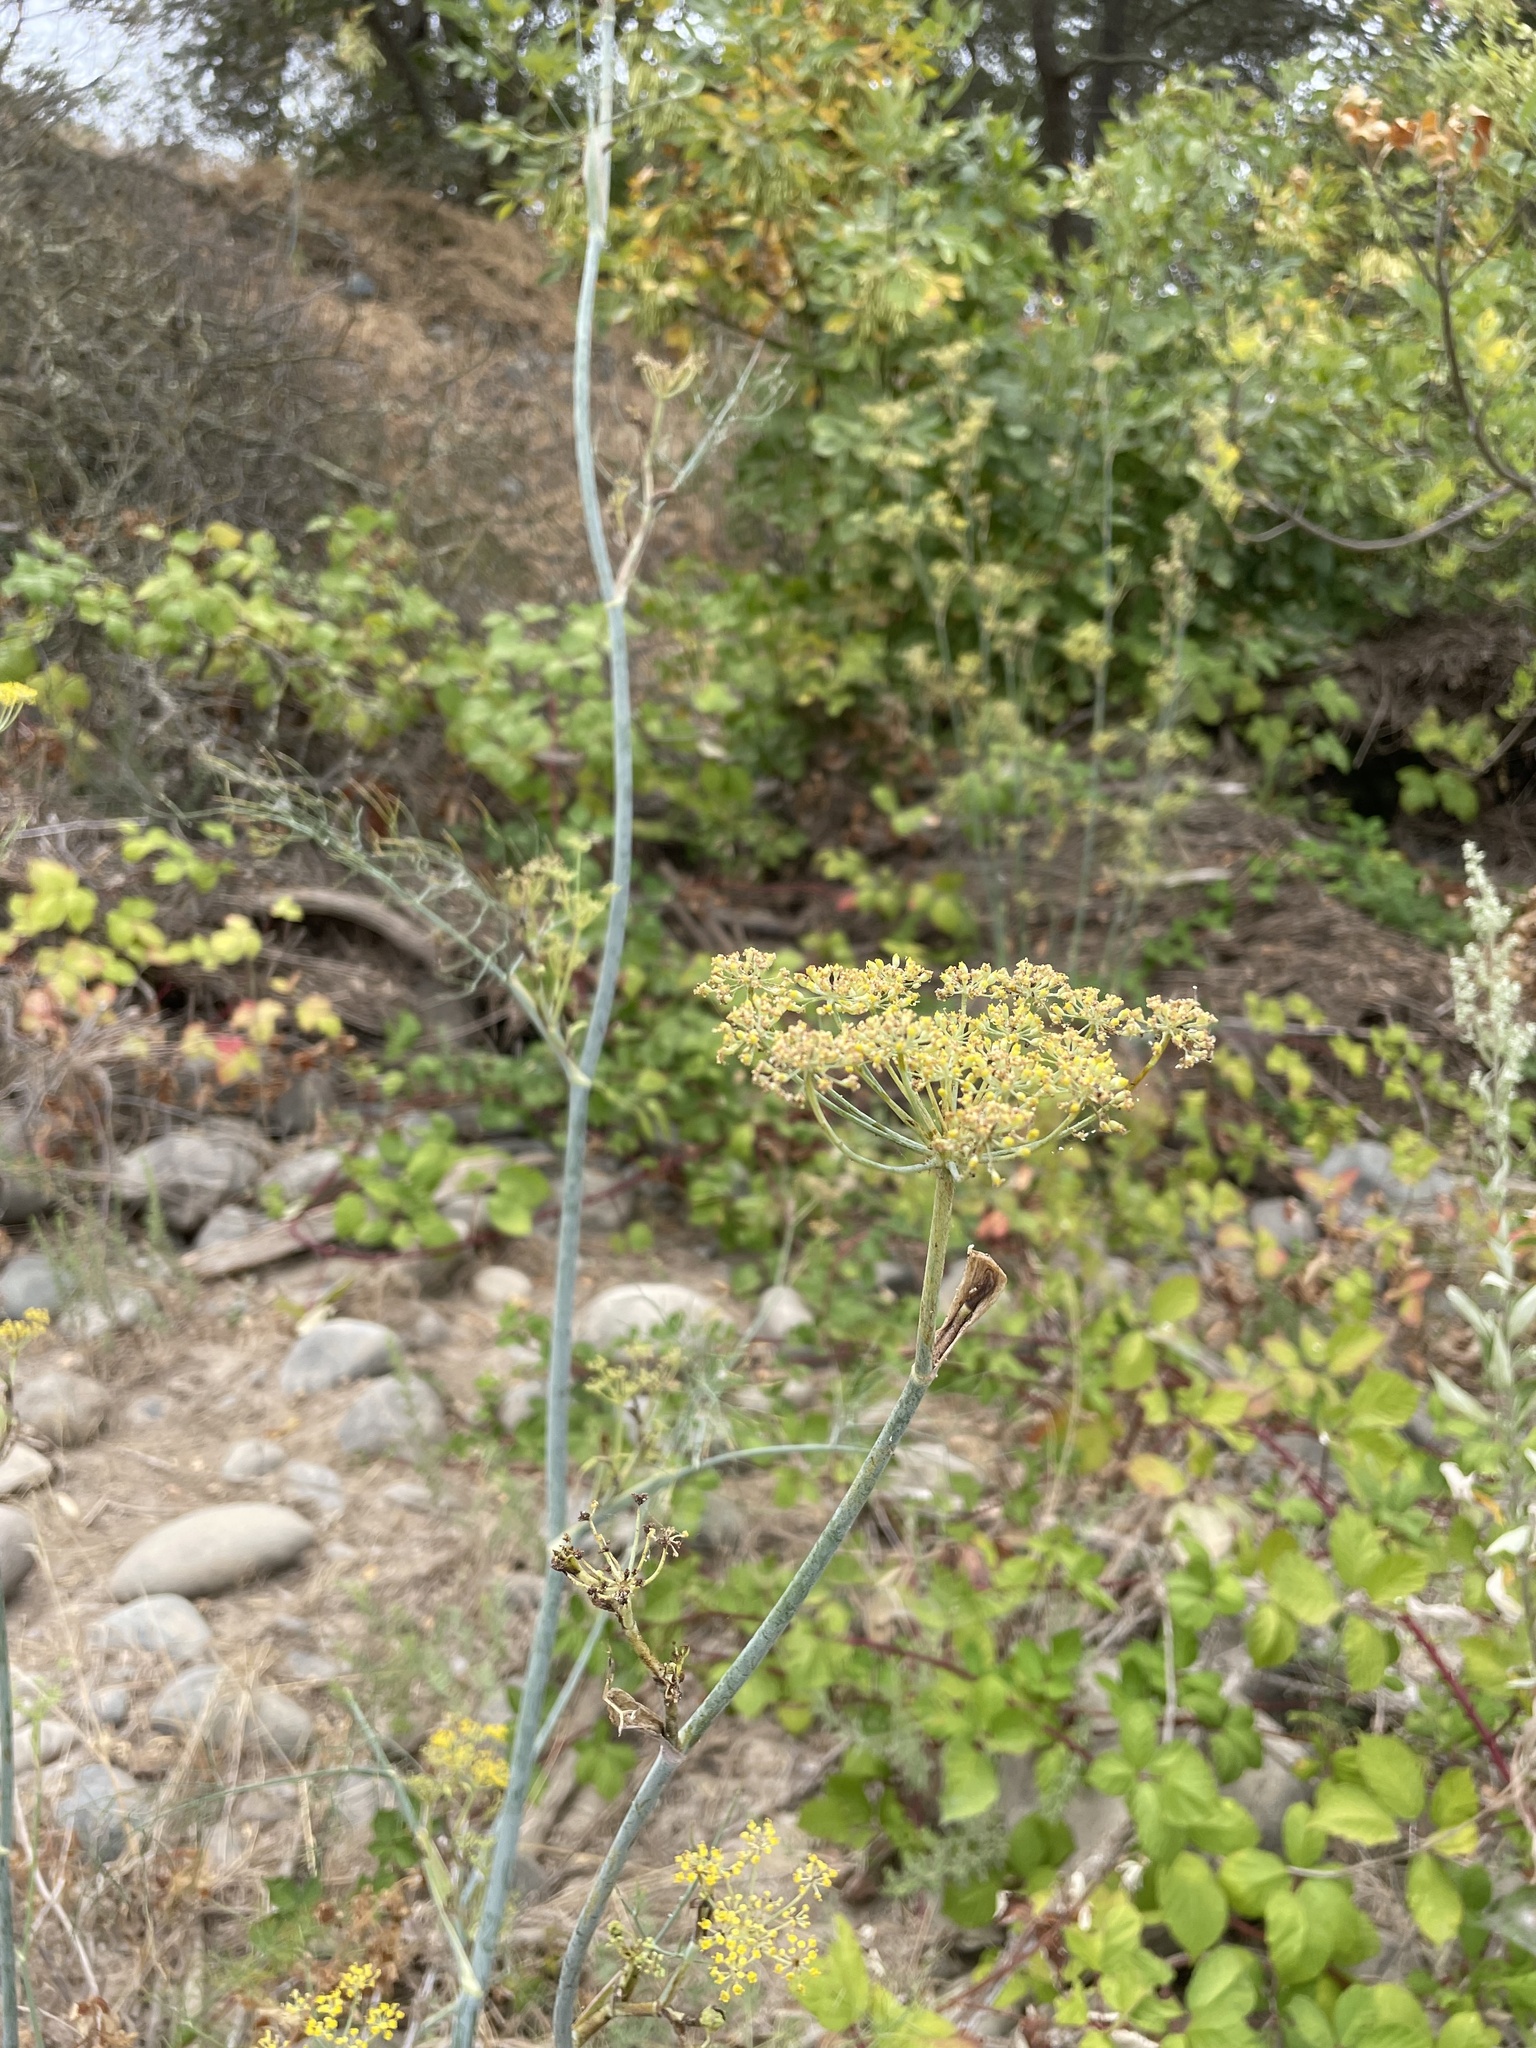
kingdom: Plantae
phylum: Tracheophyta
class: Magnoliopsida
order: Apiales
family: Apiaceae
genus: Foeniculum
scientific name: Foeniculum vulgare
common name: Fennel
